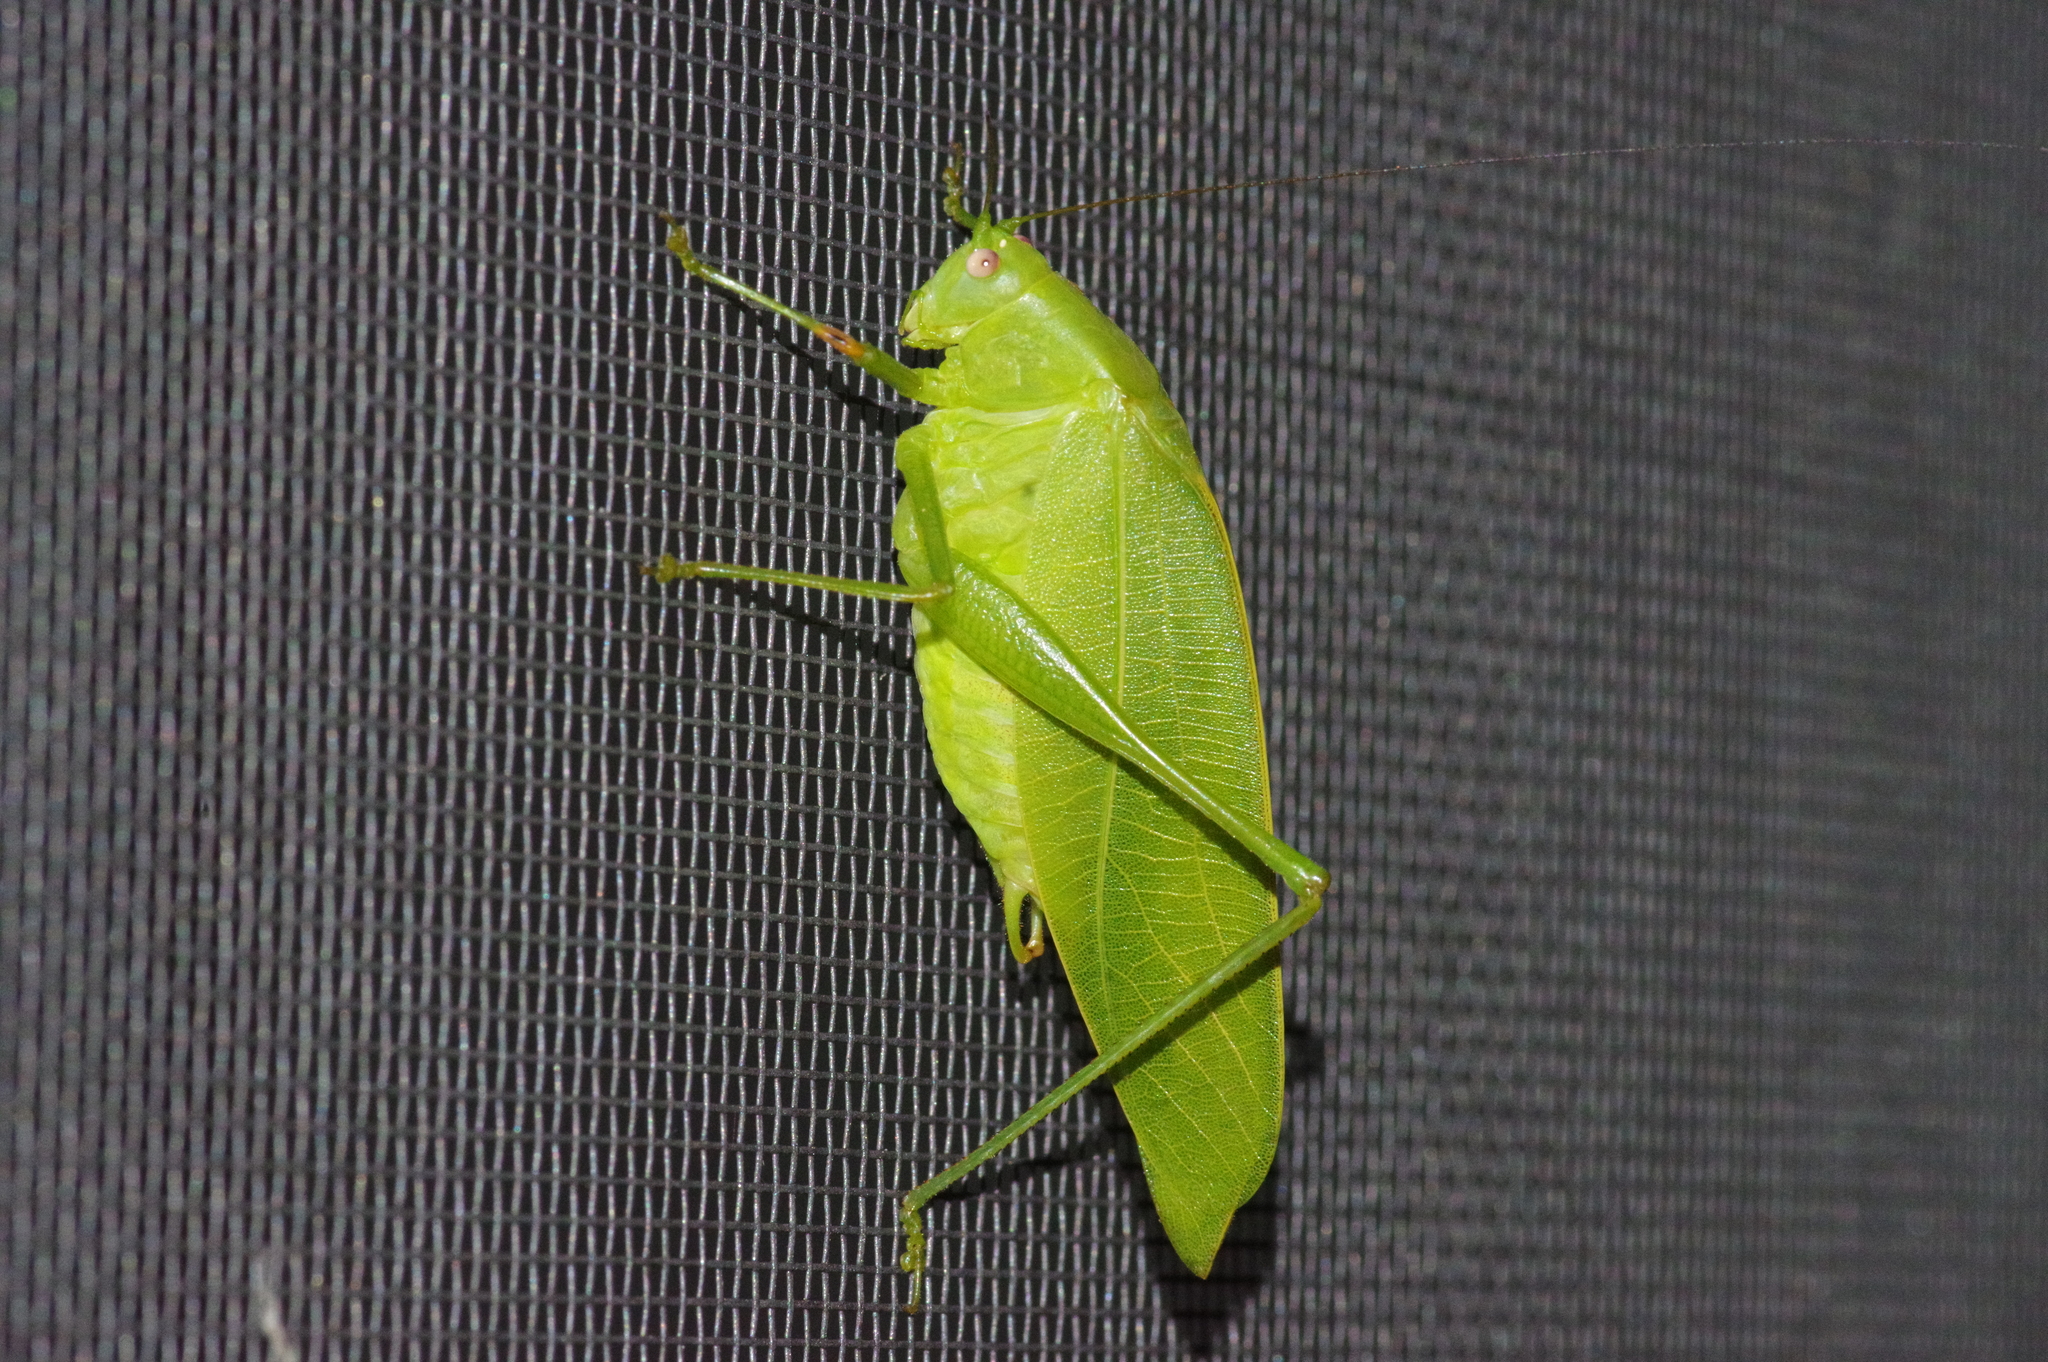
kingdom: Animalia
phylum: Arthropoda
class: Insecta
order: Orthoptera
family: Tettigoniidae
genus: Phaulula
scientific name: Phaulula daitoensis
